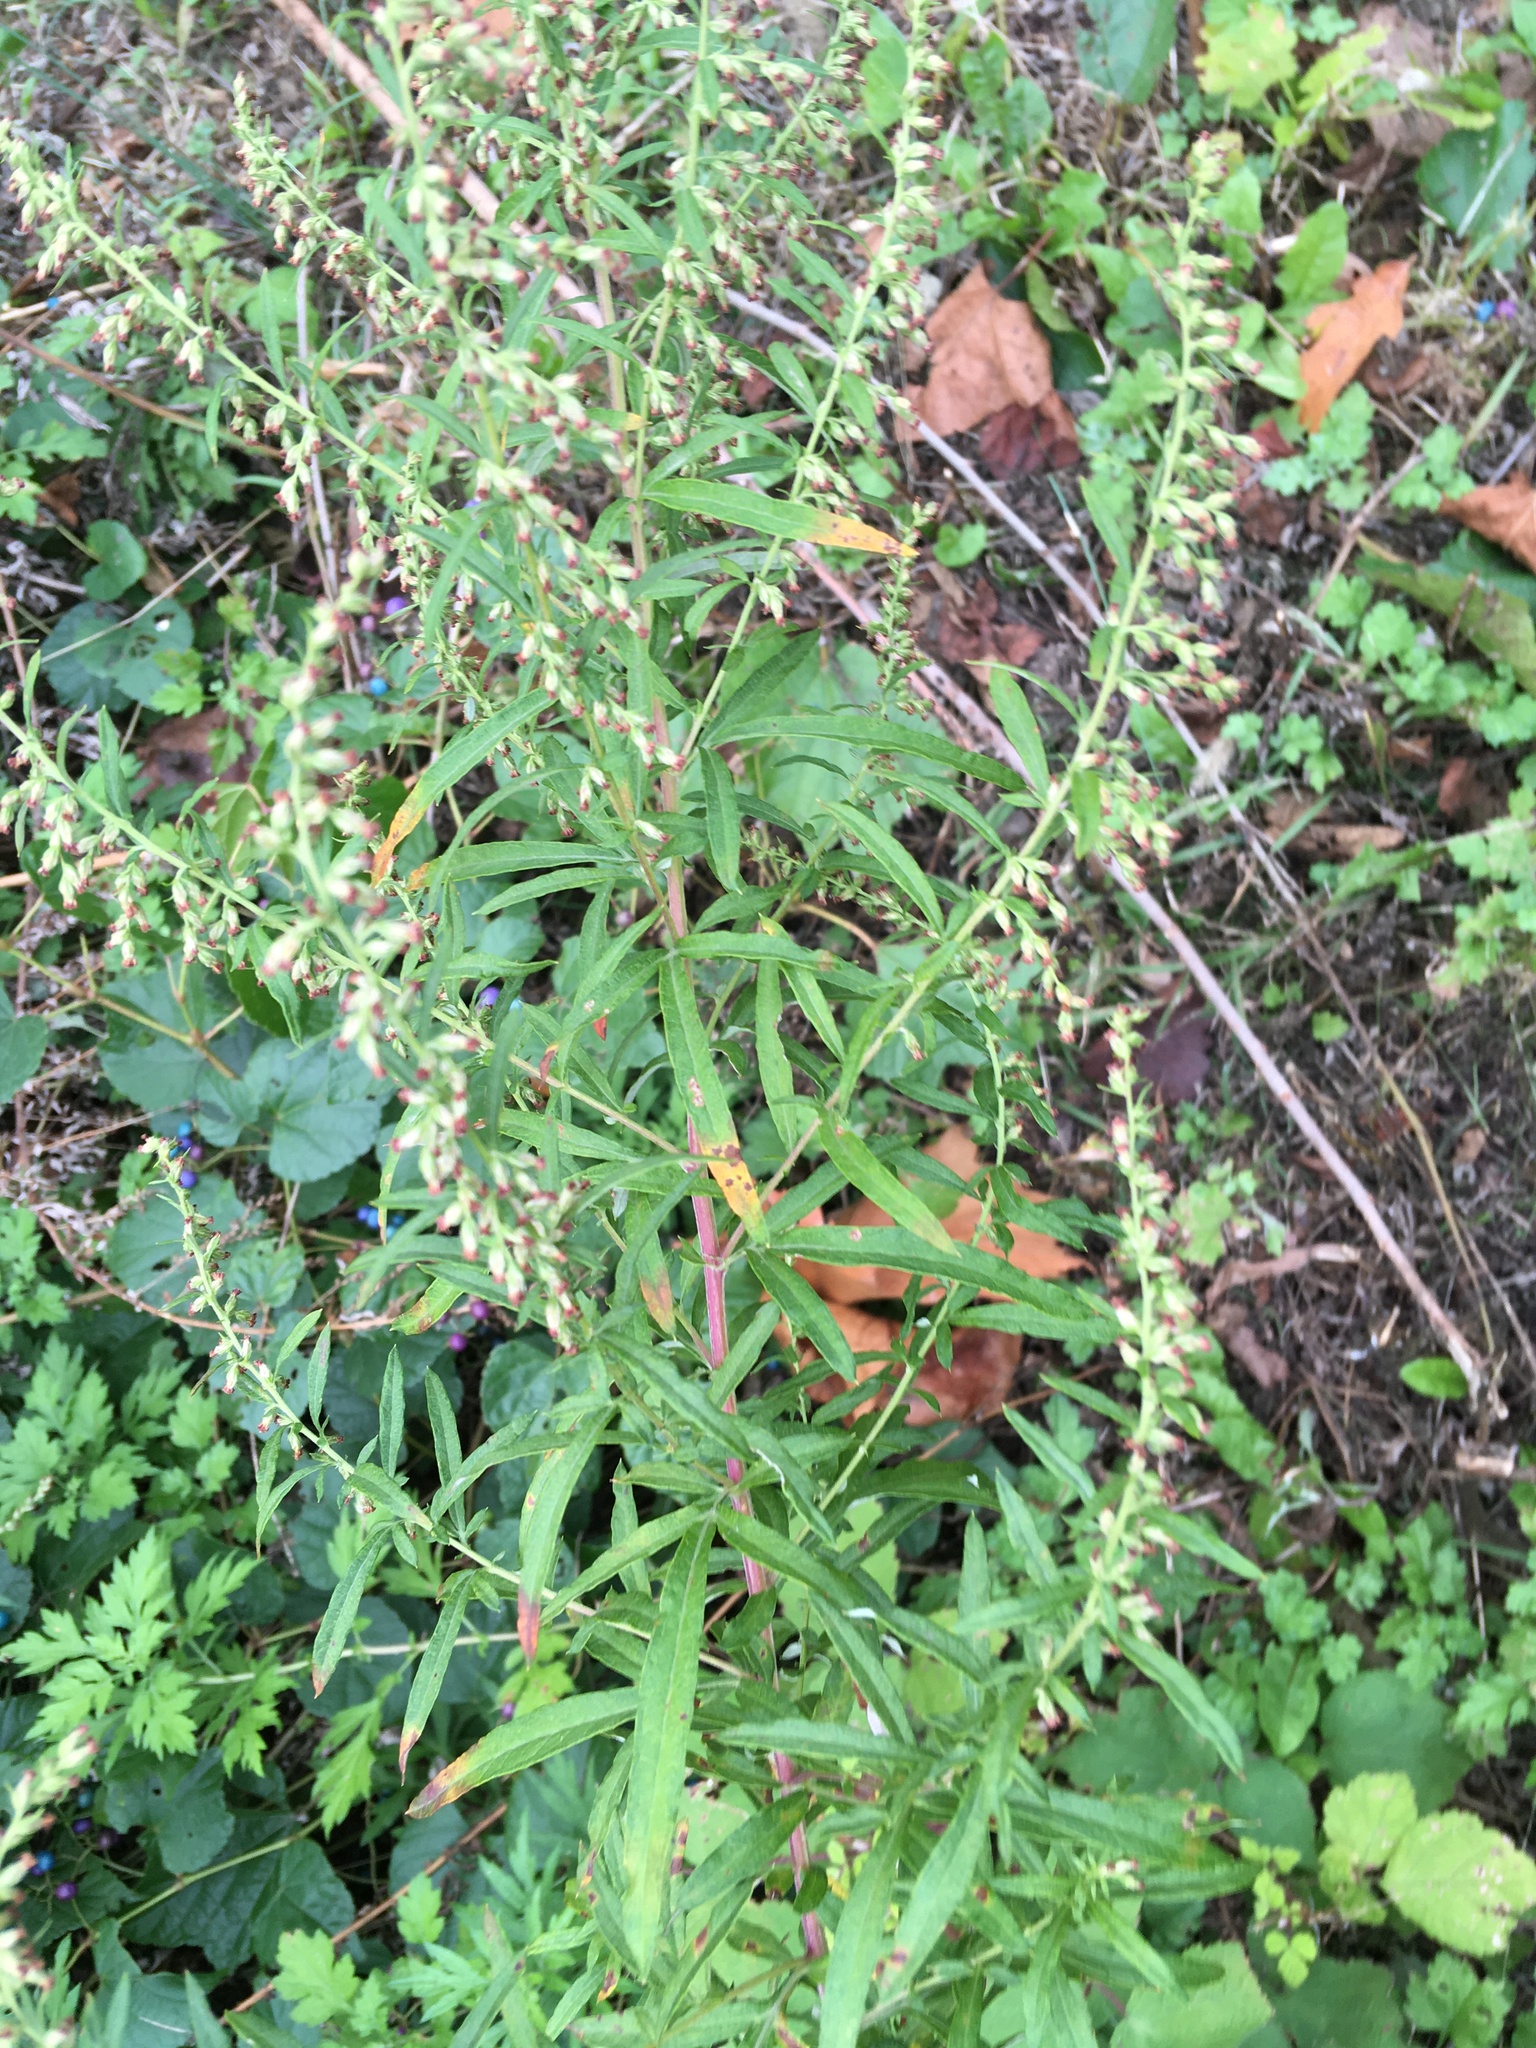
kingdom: Plantae
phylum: Tracheophyta
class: Magnoliopsida
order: Asterales
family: Asteraceae
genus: Artemisia
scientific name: Artemisia vulgaris
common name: Mugwort
